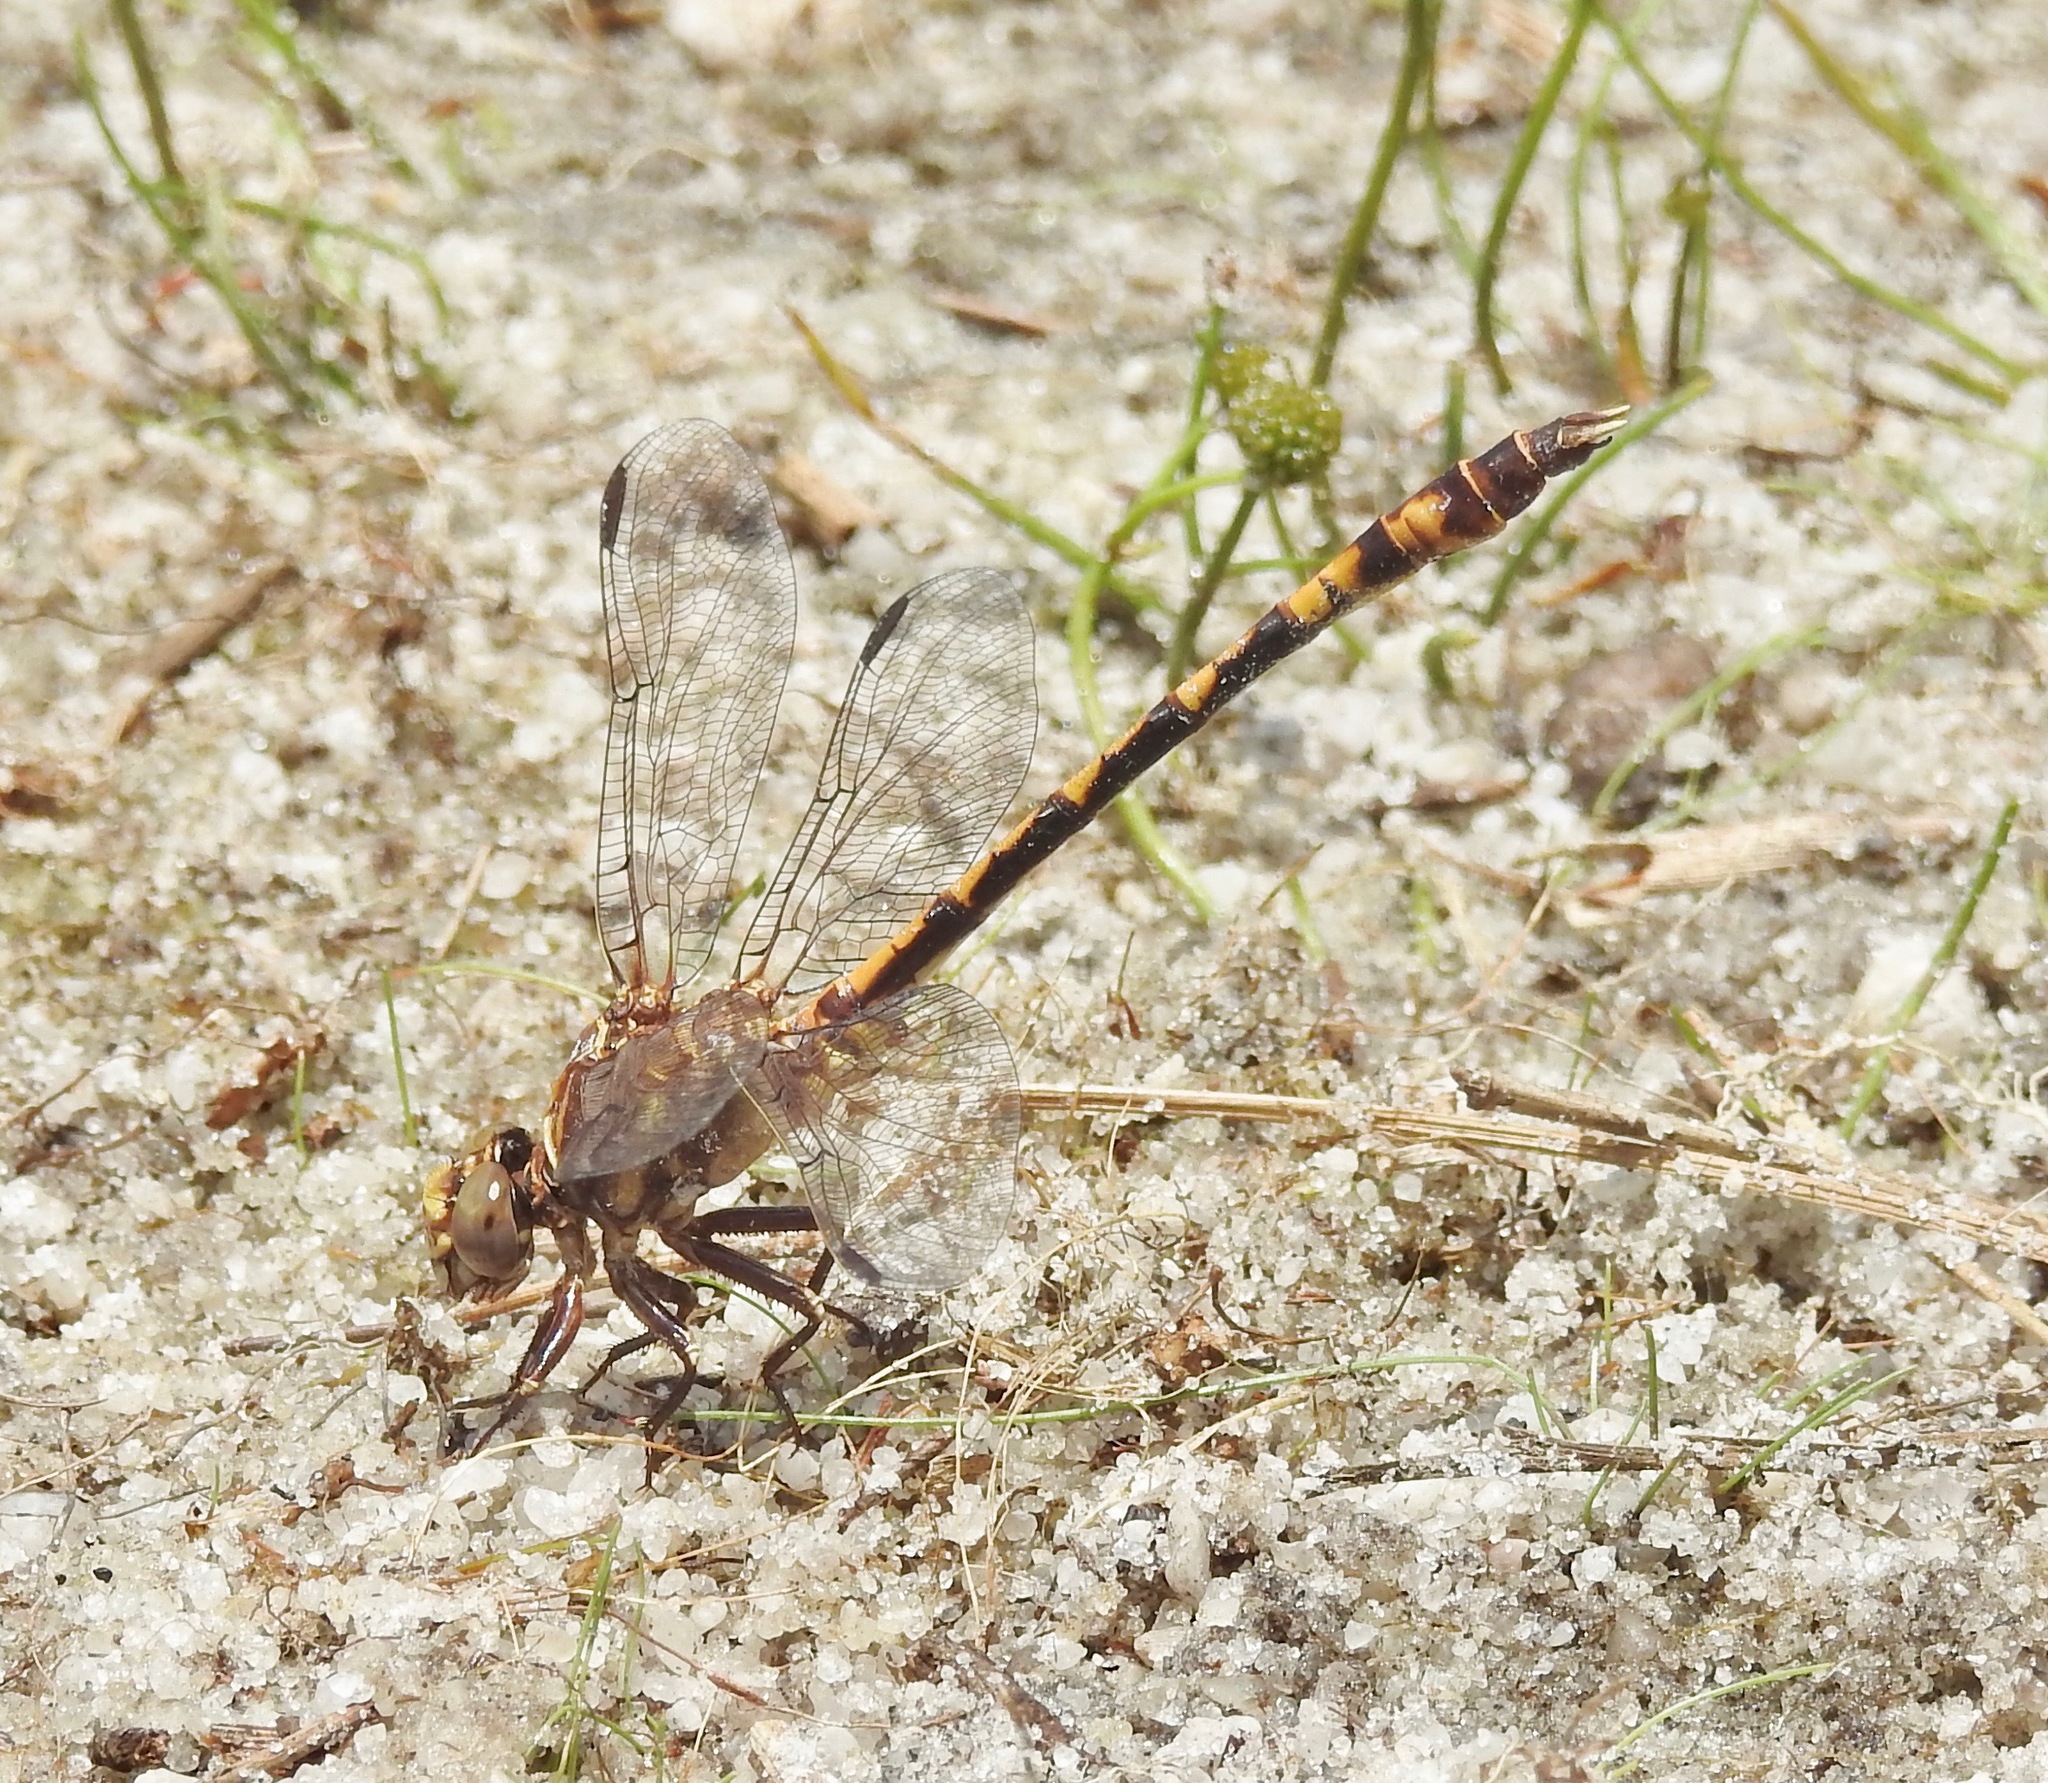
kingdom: Animalia
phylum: Arthropoda
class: Insecta
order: Odonata
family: Gomphidae
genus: Progomphus
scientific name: Progomphus alachuensis
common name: Tawny sanddragon
